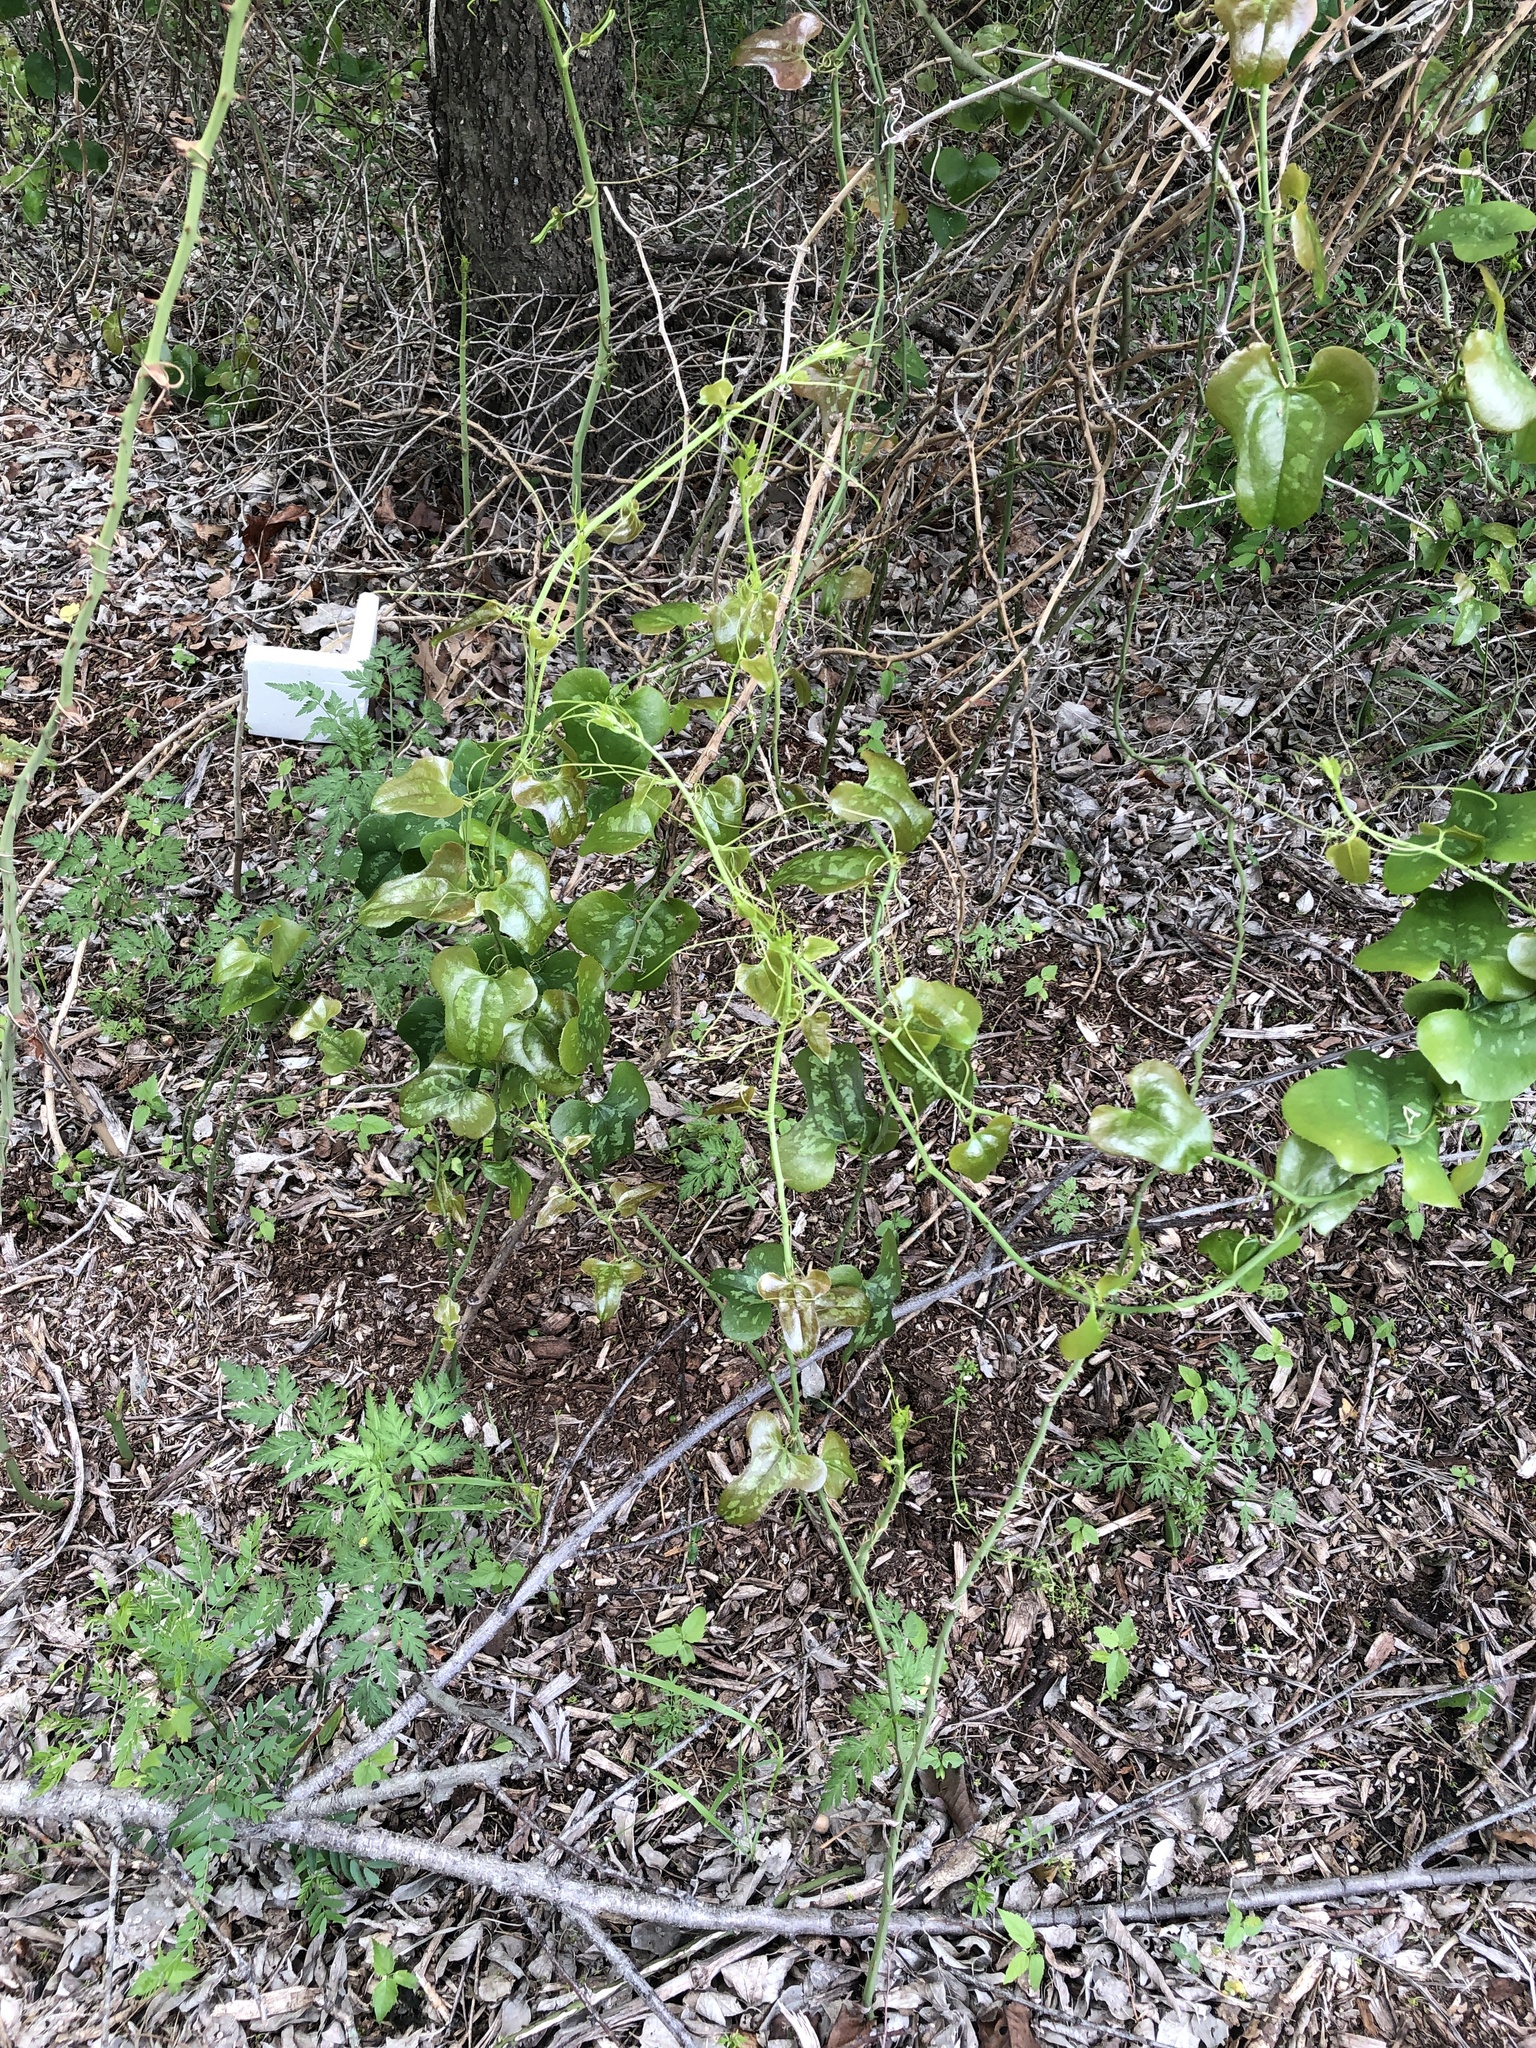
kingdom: Plantae
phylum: Tracheophyta
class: Liliopsida
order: Liliales
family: Smilacaceae
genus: Smilax
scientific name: Smilax bona-nox
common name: Catbrier
